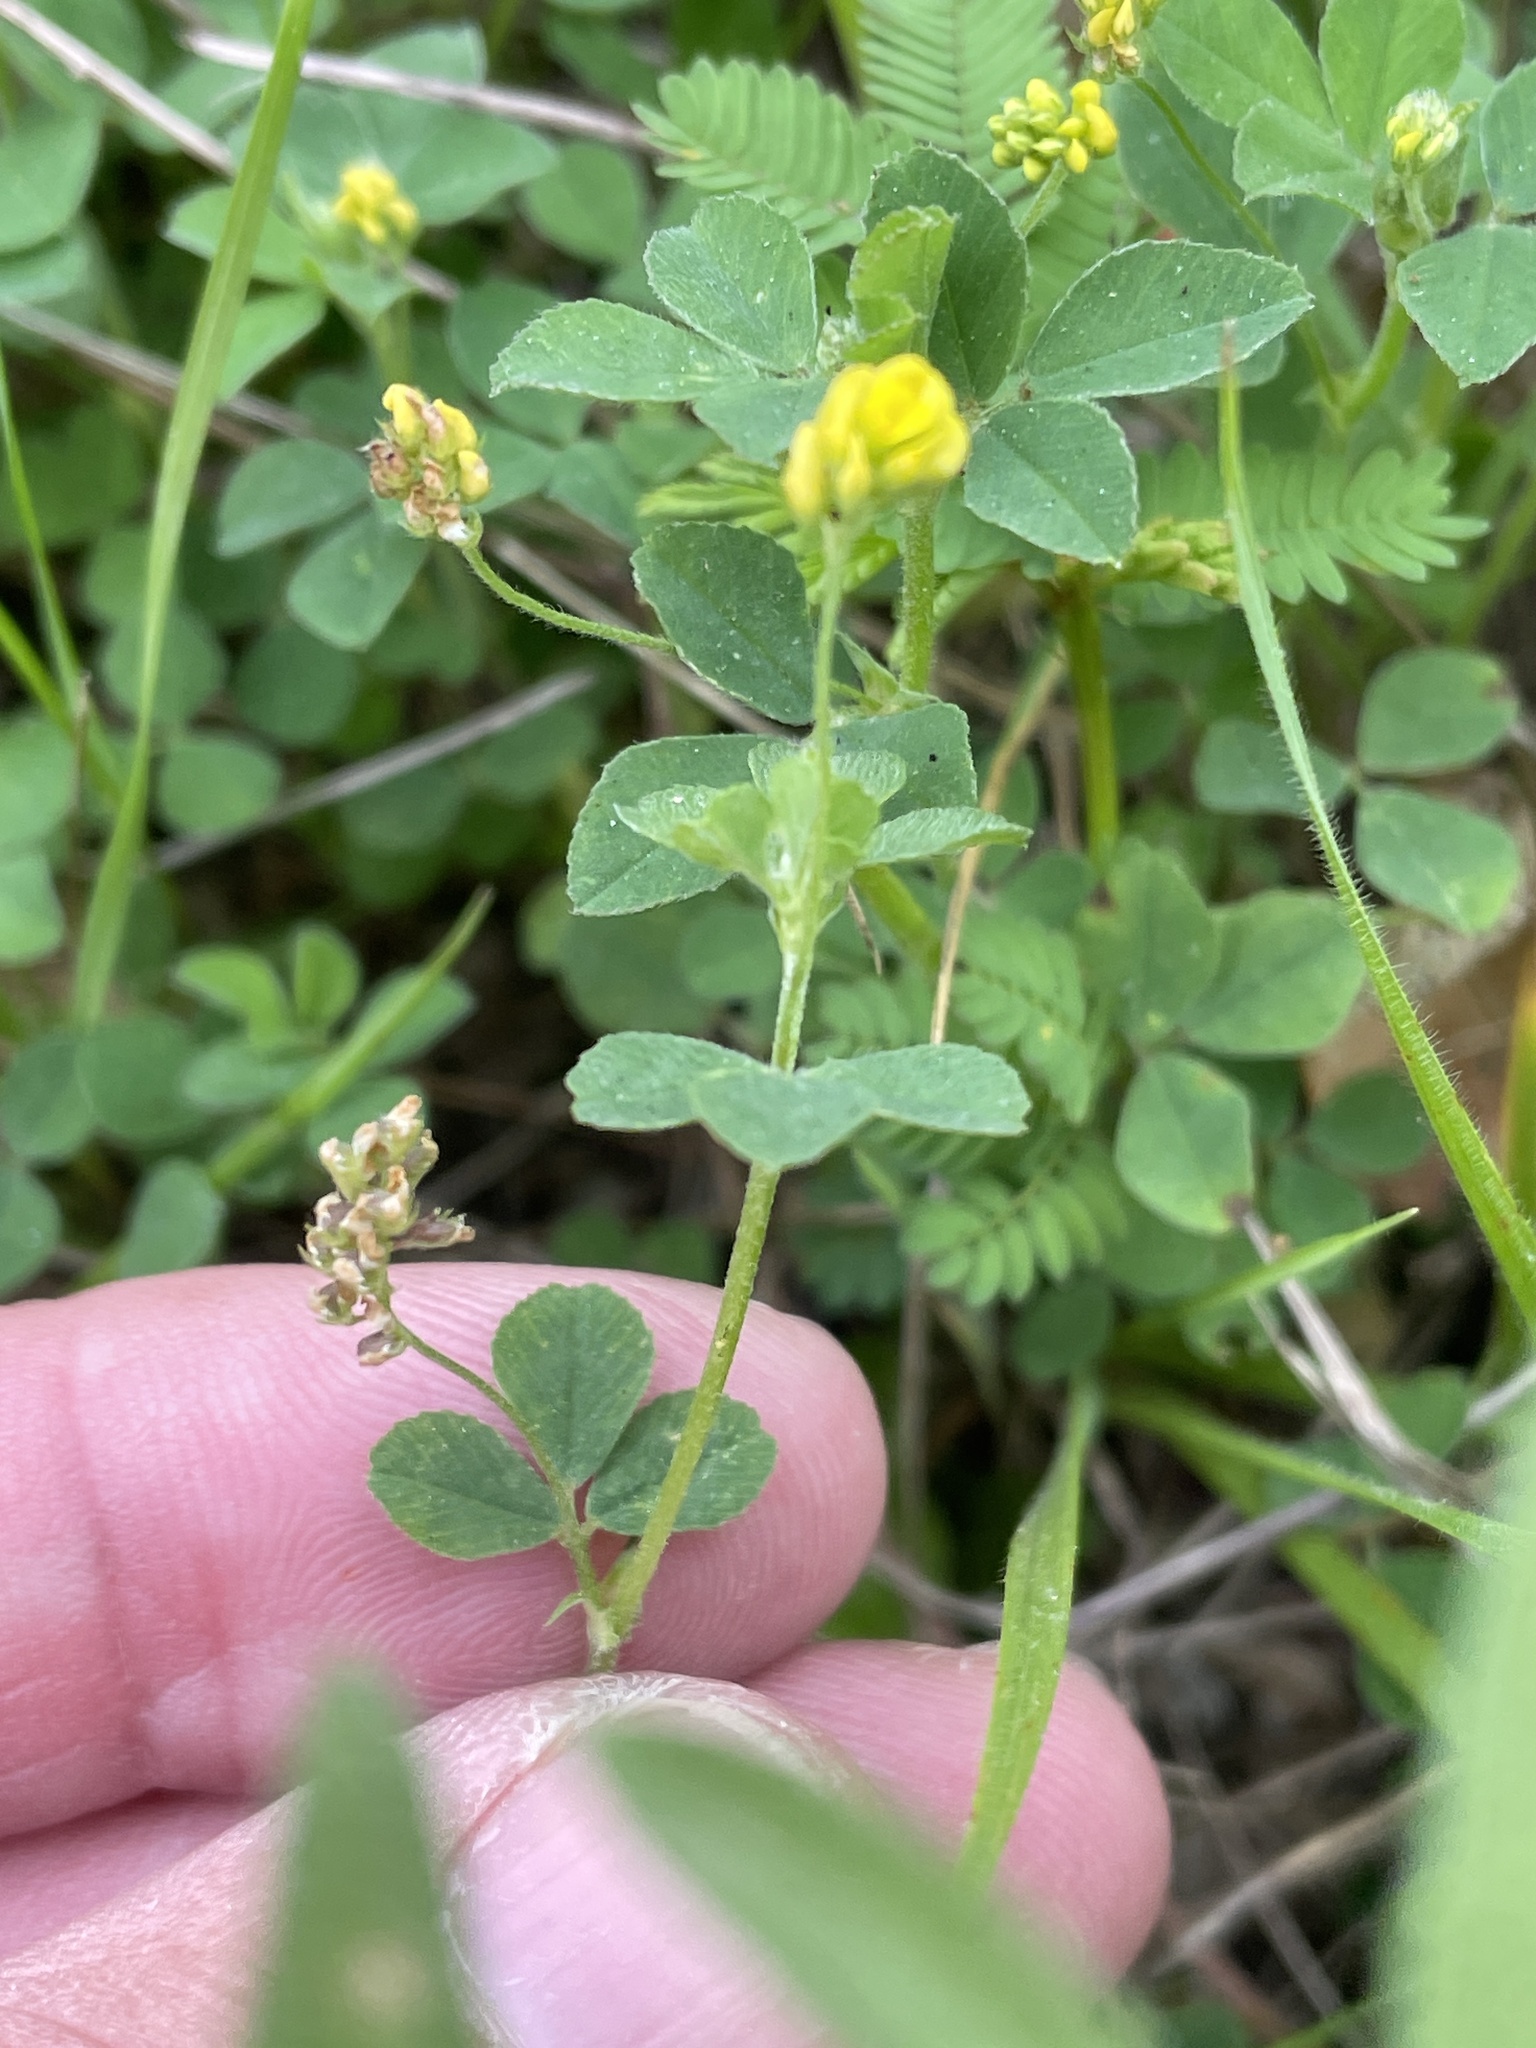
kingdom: Plantae
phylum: Tracheophyta
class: Magnoliopsida
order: Fabales
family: Fabaceae
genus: Medicago
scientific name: Medicago lupulina
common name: Black medick
